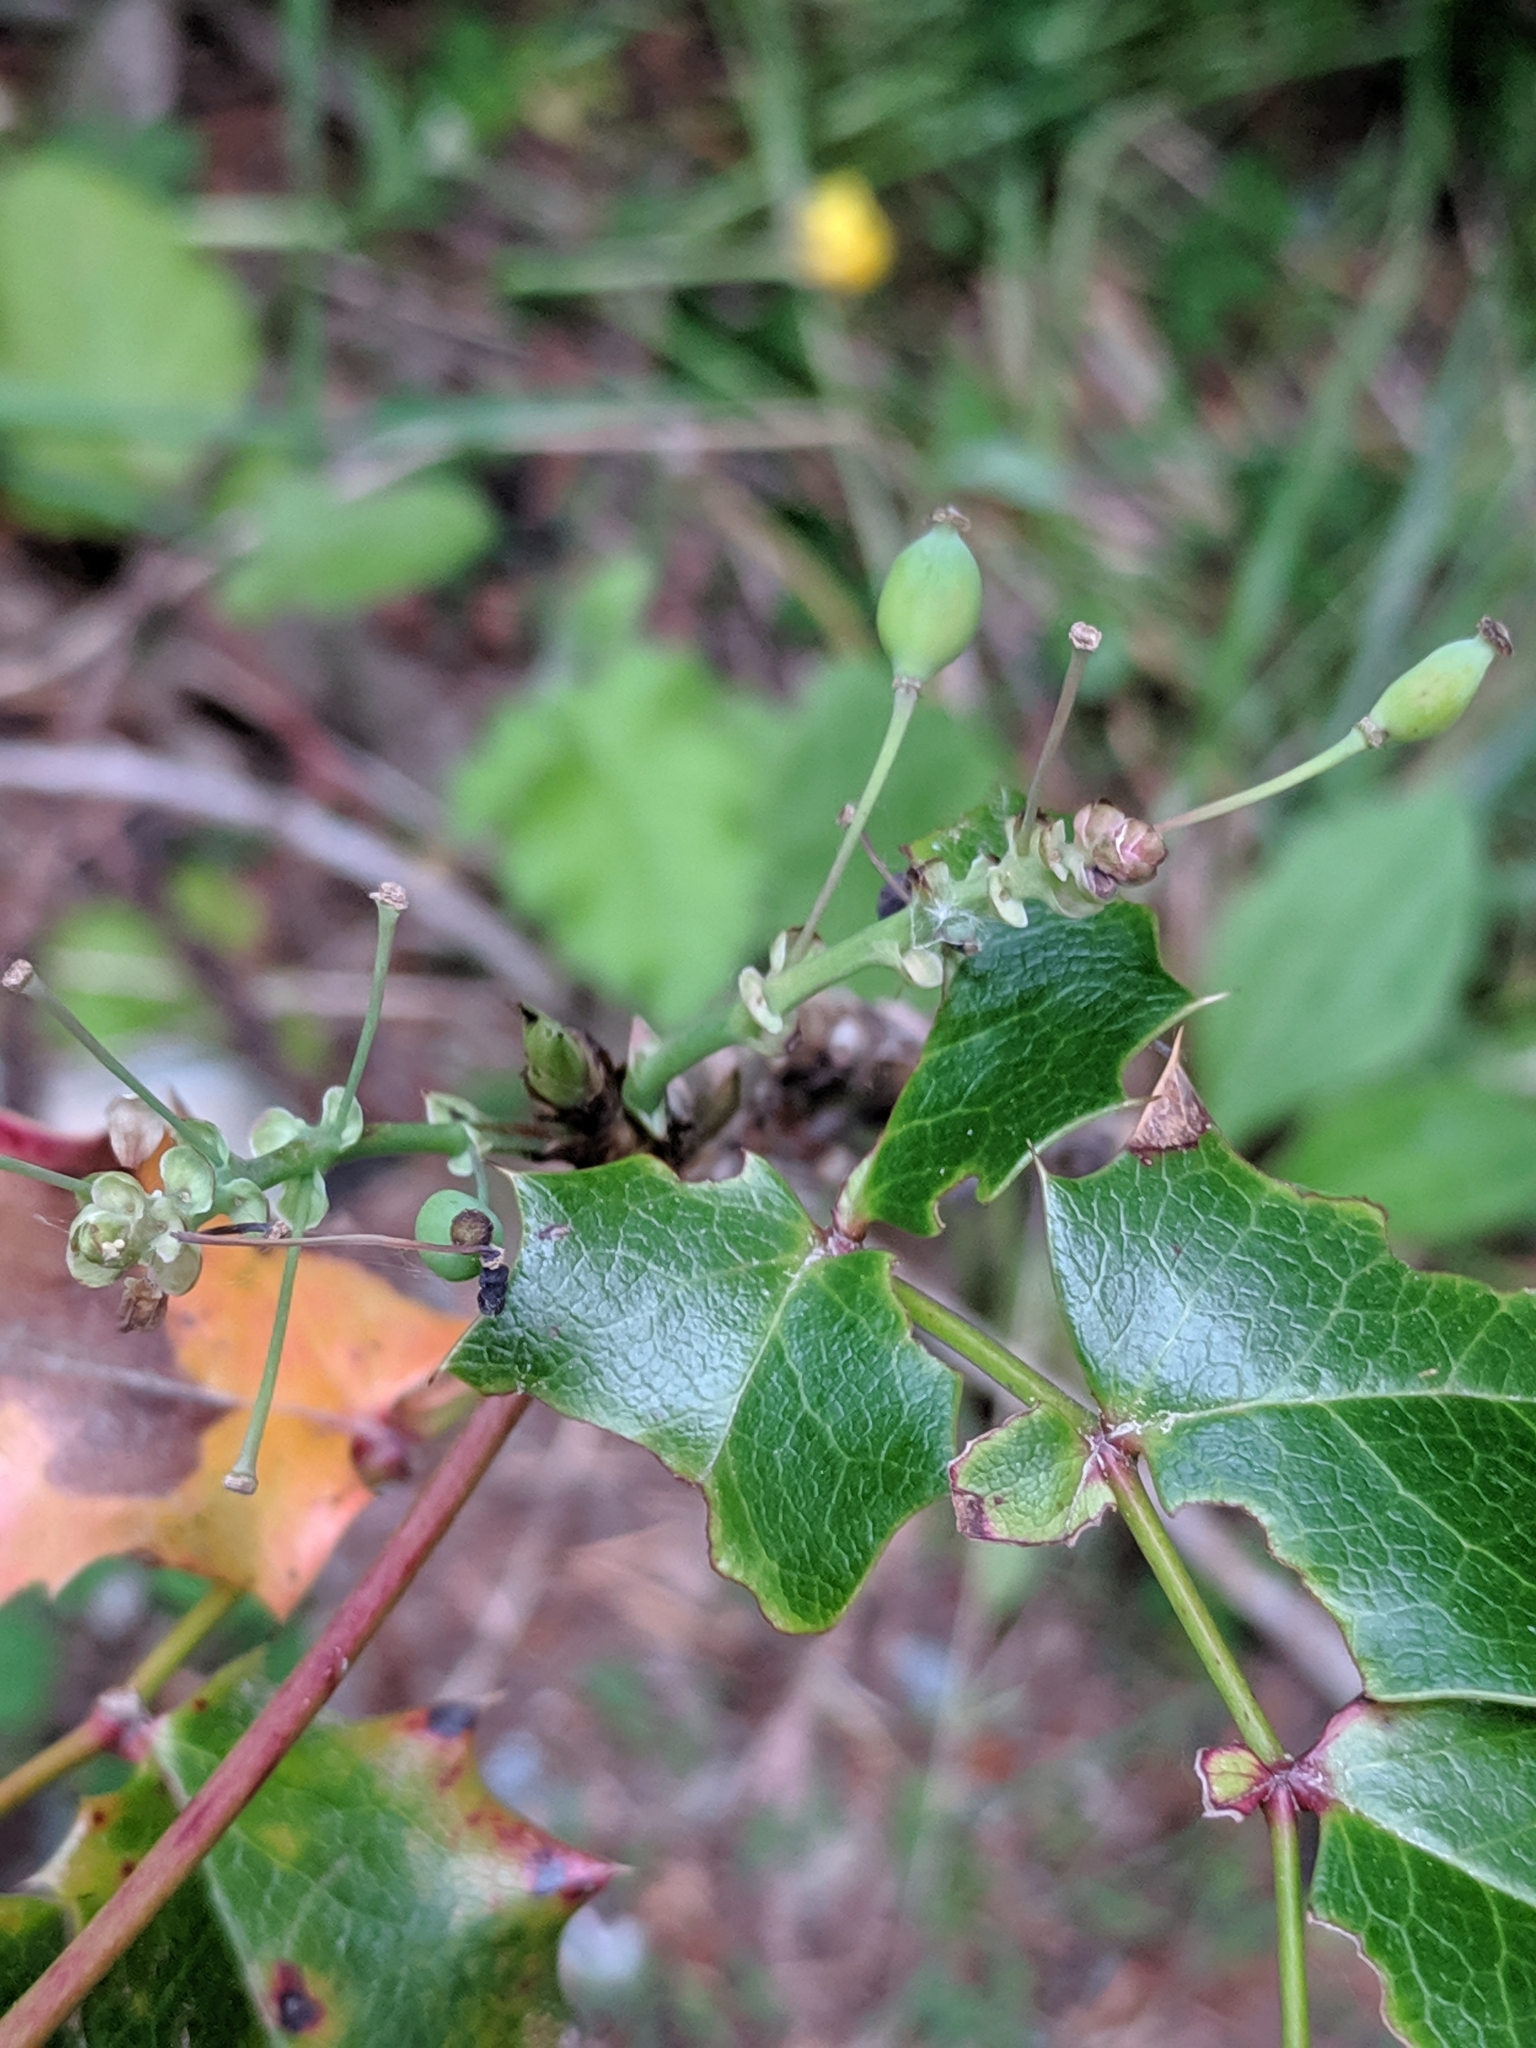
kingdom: Plantae
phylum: Tracheophyta
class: Magnoliopsida
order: Ranunculales
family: Berberidaceae
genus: Mahonia
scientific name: Mahonia aquifolium
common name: Oregon-grape
